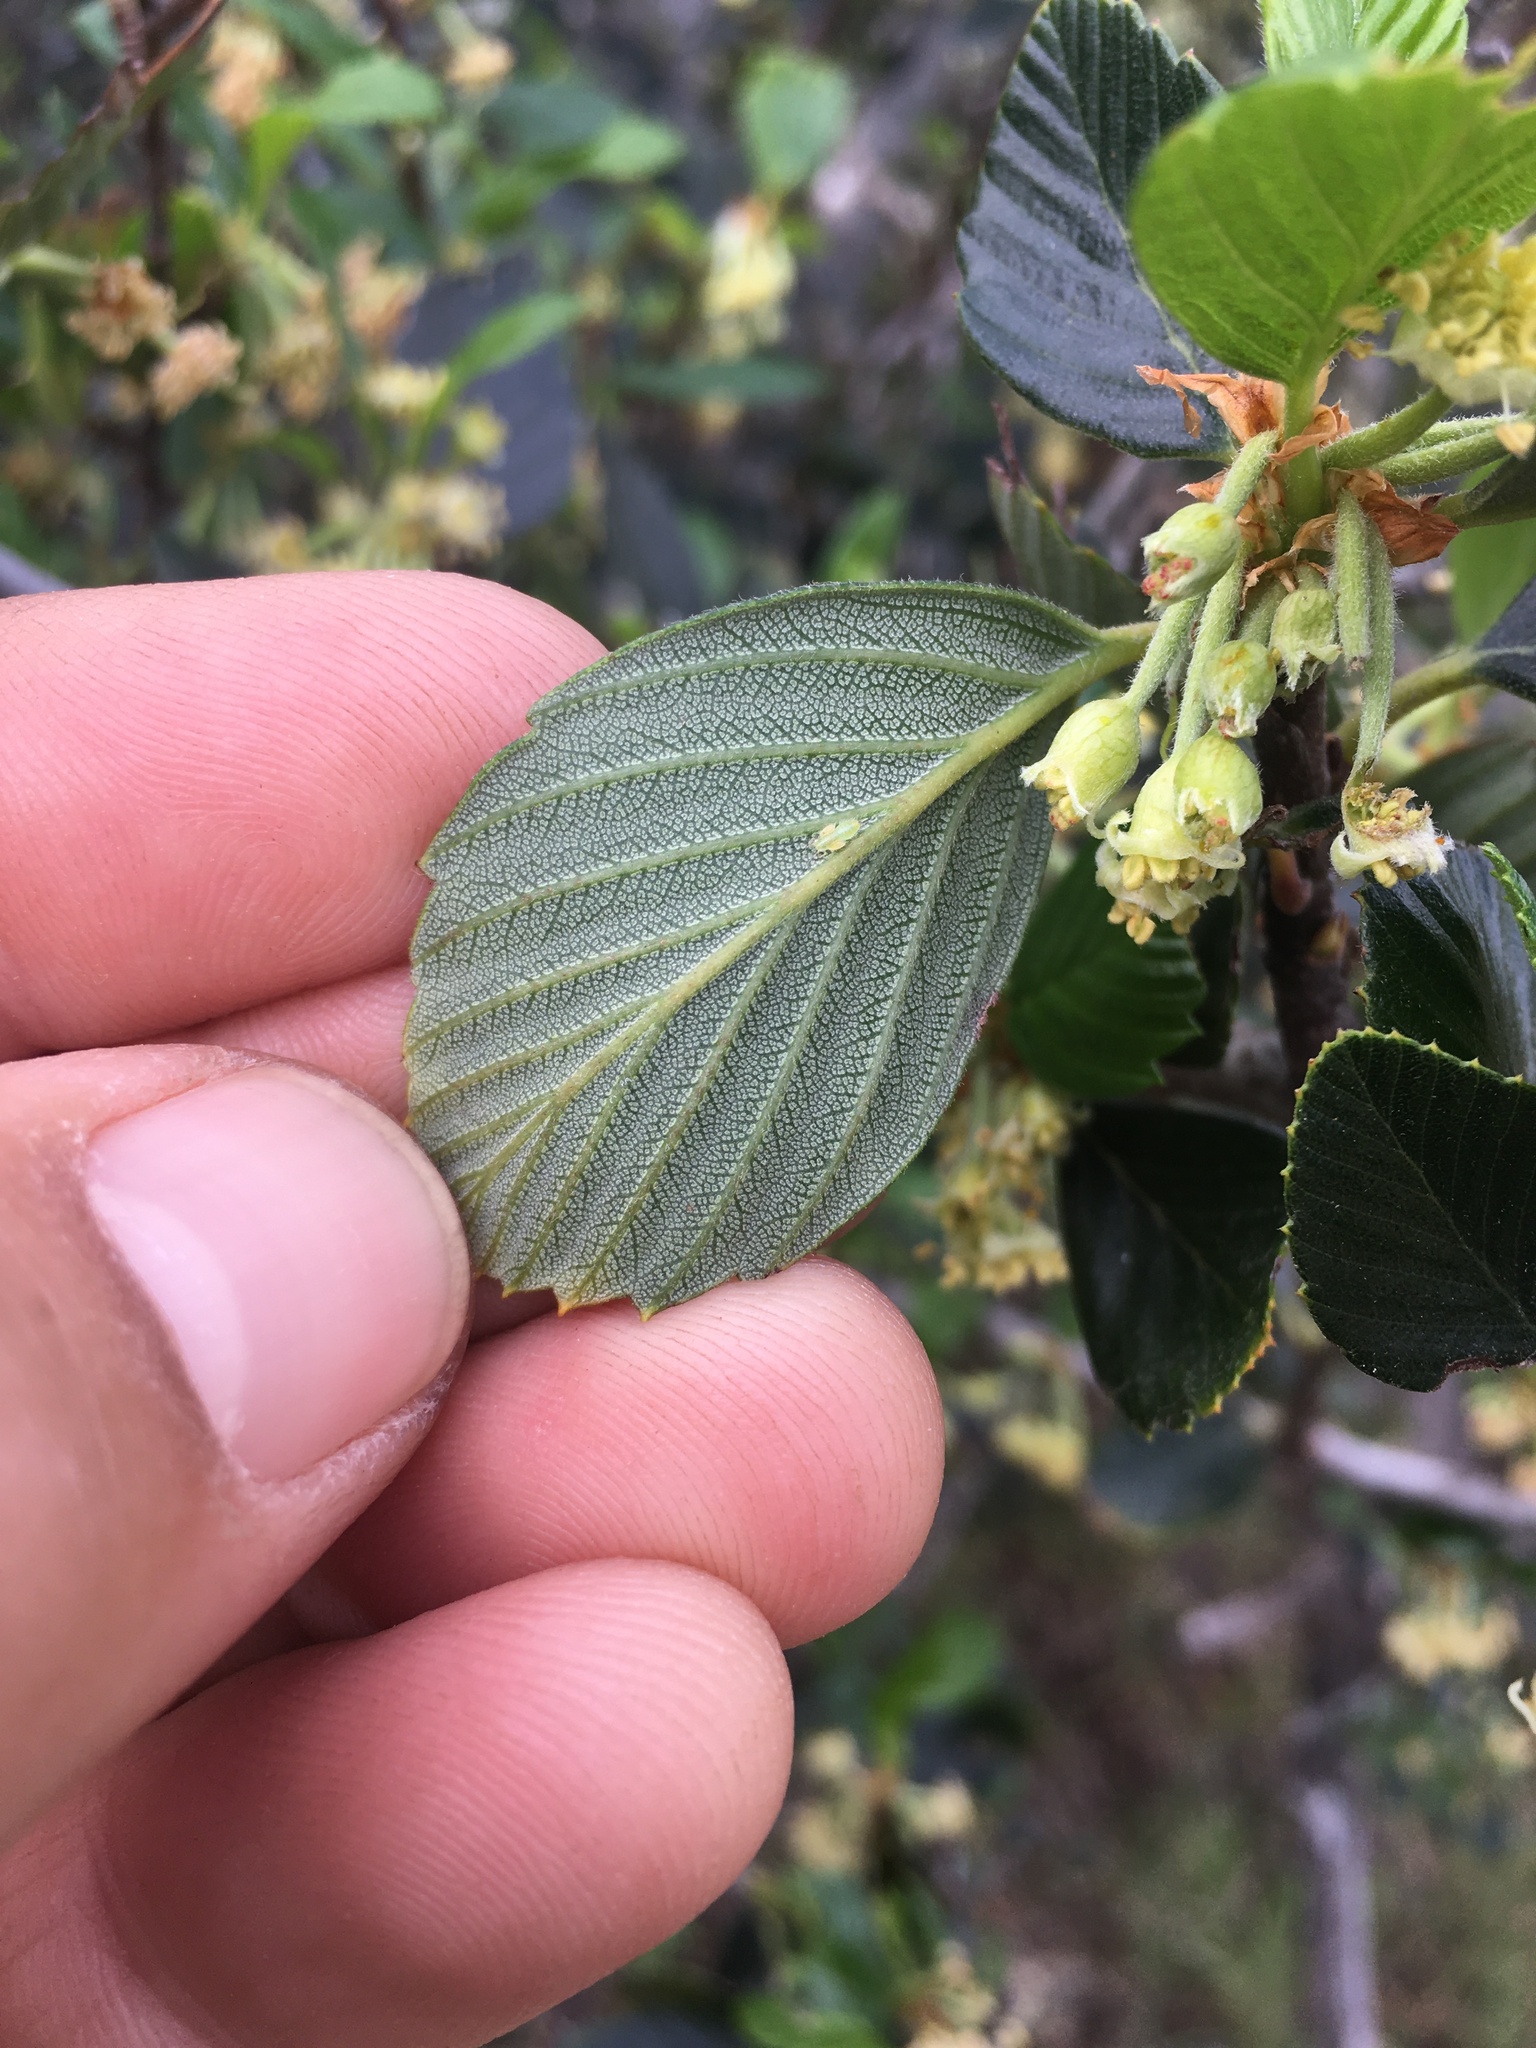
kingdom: Plantae
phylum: Tracheophyta
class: Magnoliopsida
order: Rosales
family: Rosaceae
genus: Cercocarpus
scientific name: Cercocarpus betuloides
